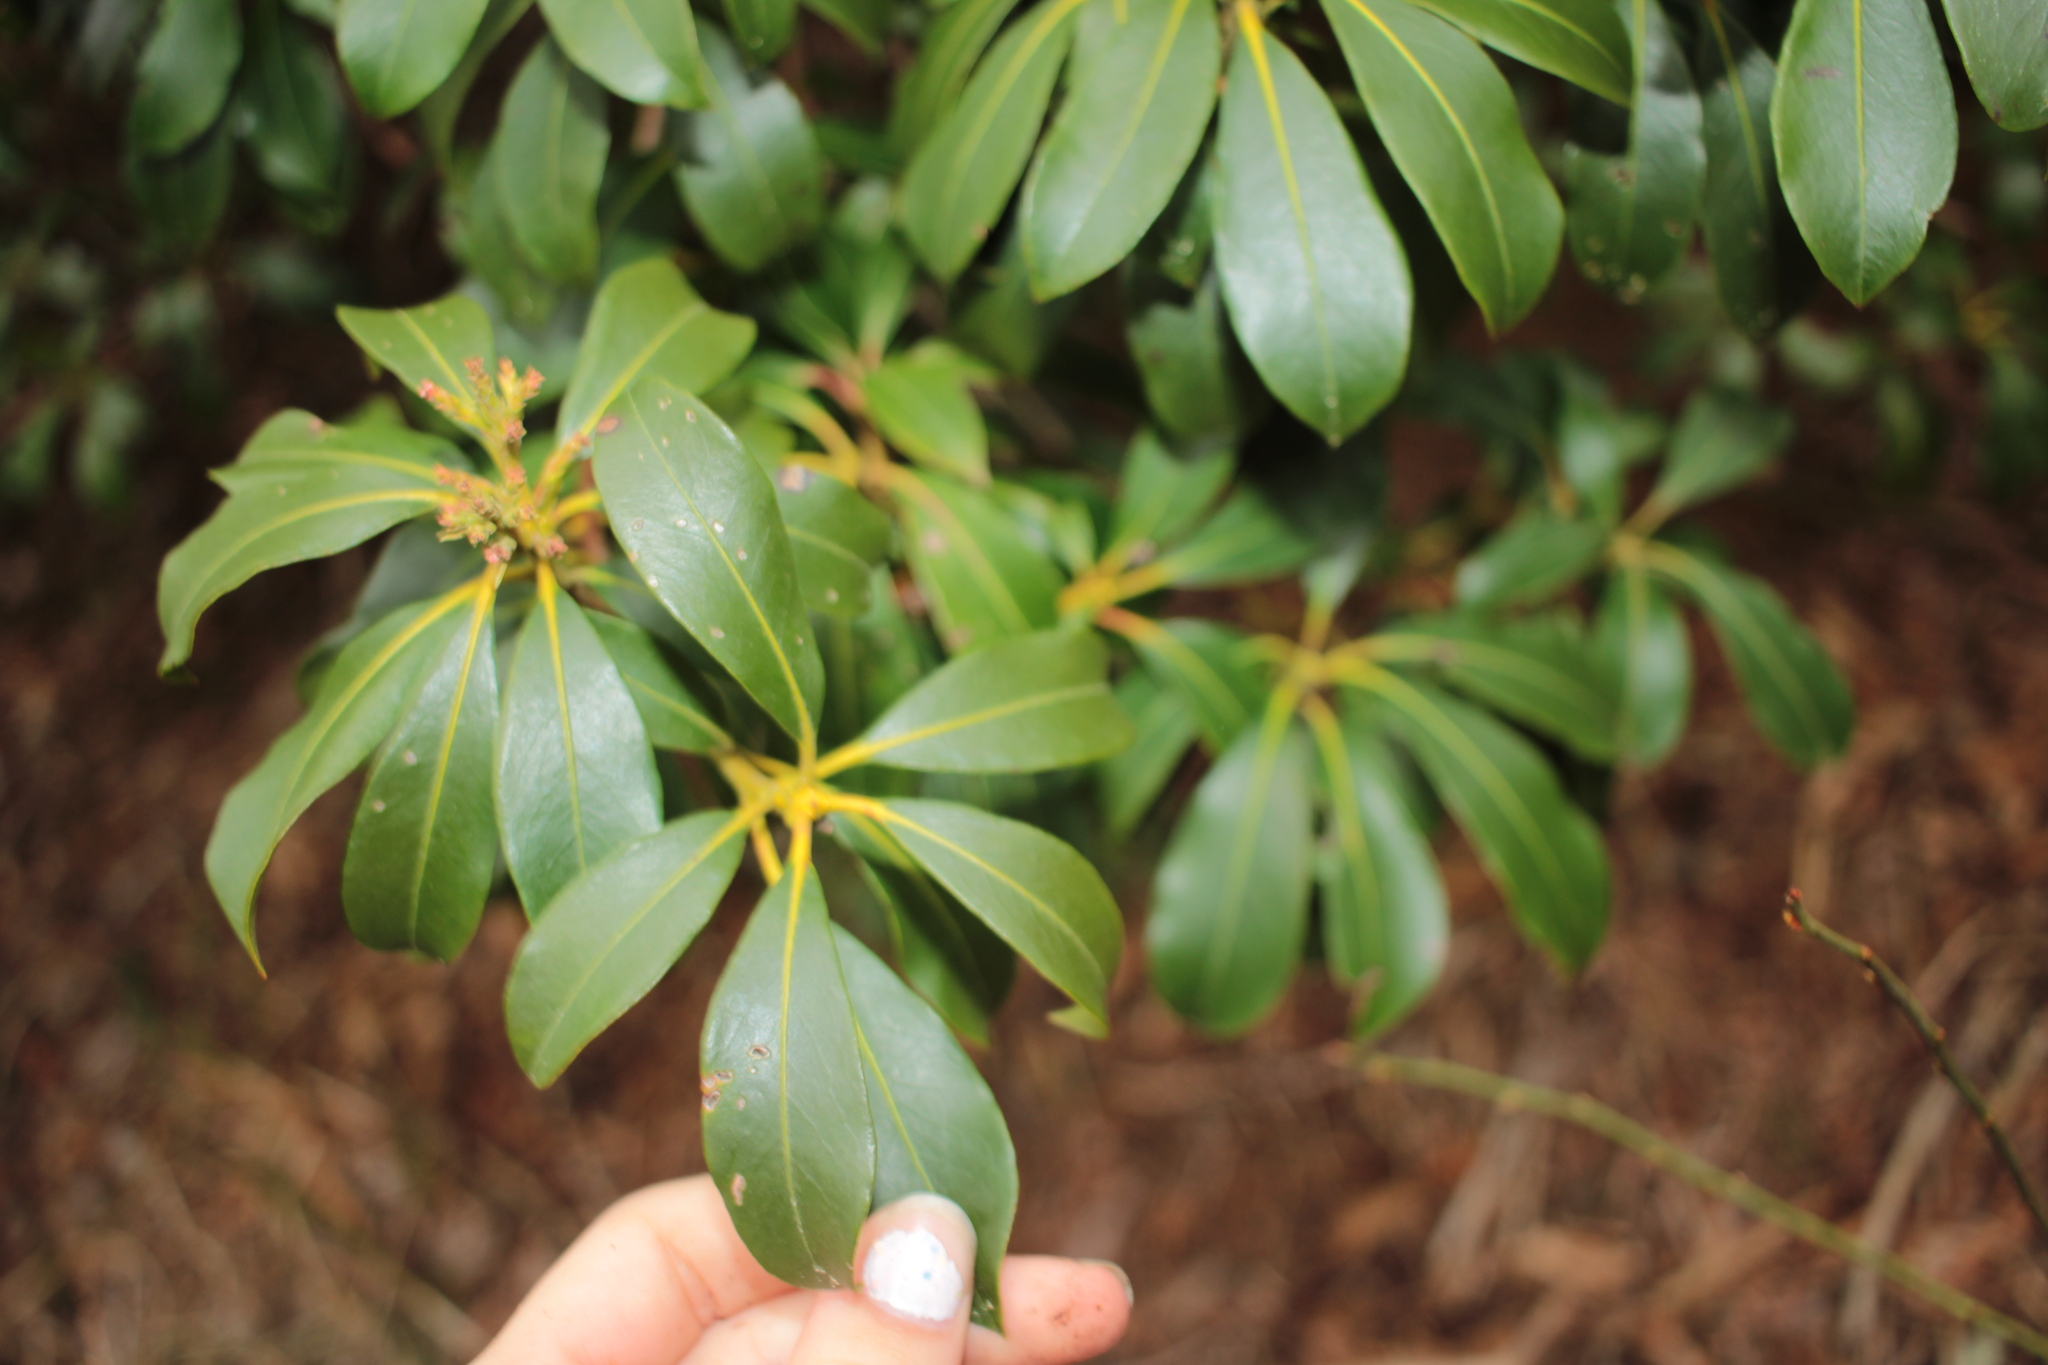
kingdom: Plantae
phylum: Tracheophyta
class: Magnoliopsida
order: Ericales
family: Ericaceae
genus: Kalmia
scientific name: Kalmia latifolia
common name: Mountain-laurel
